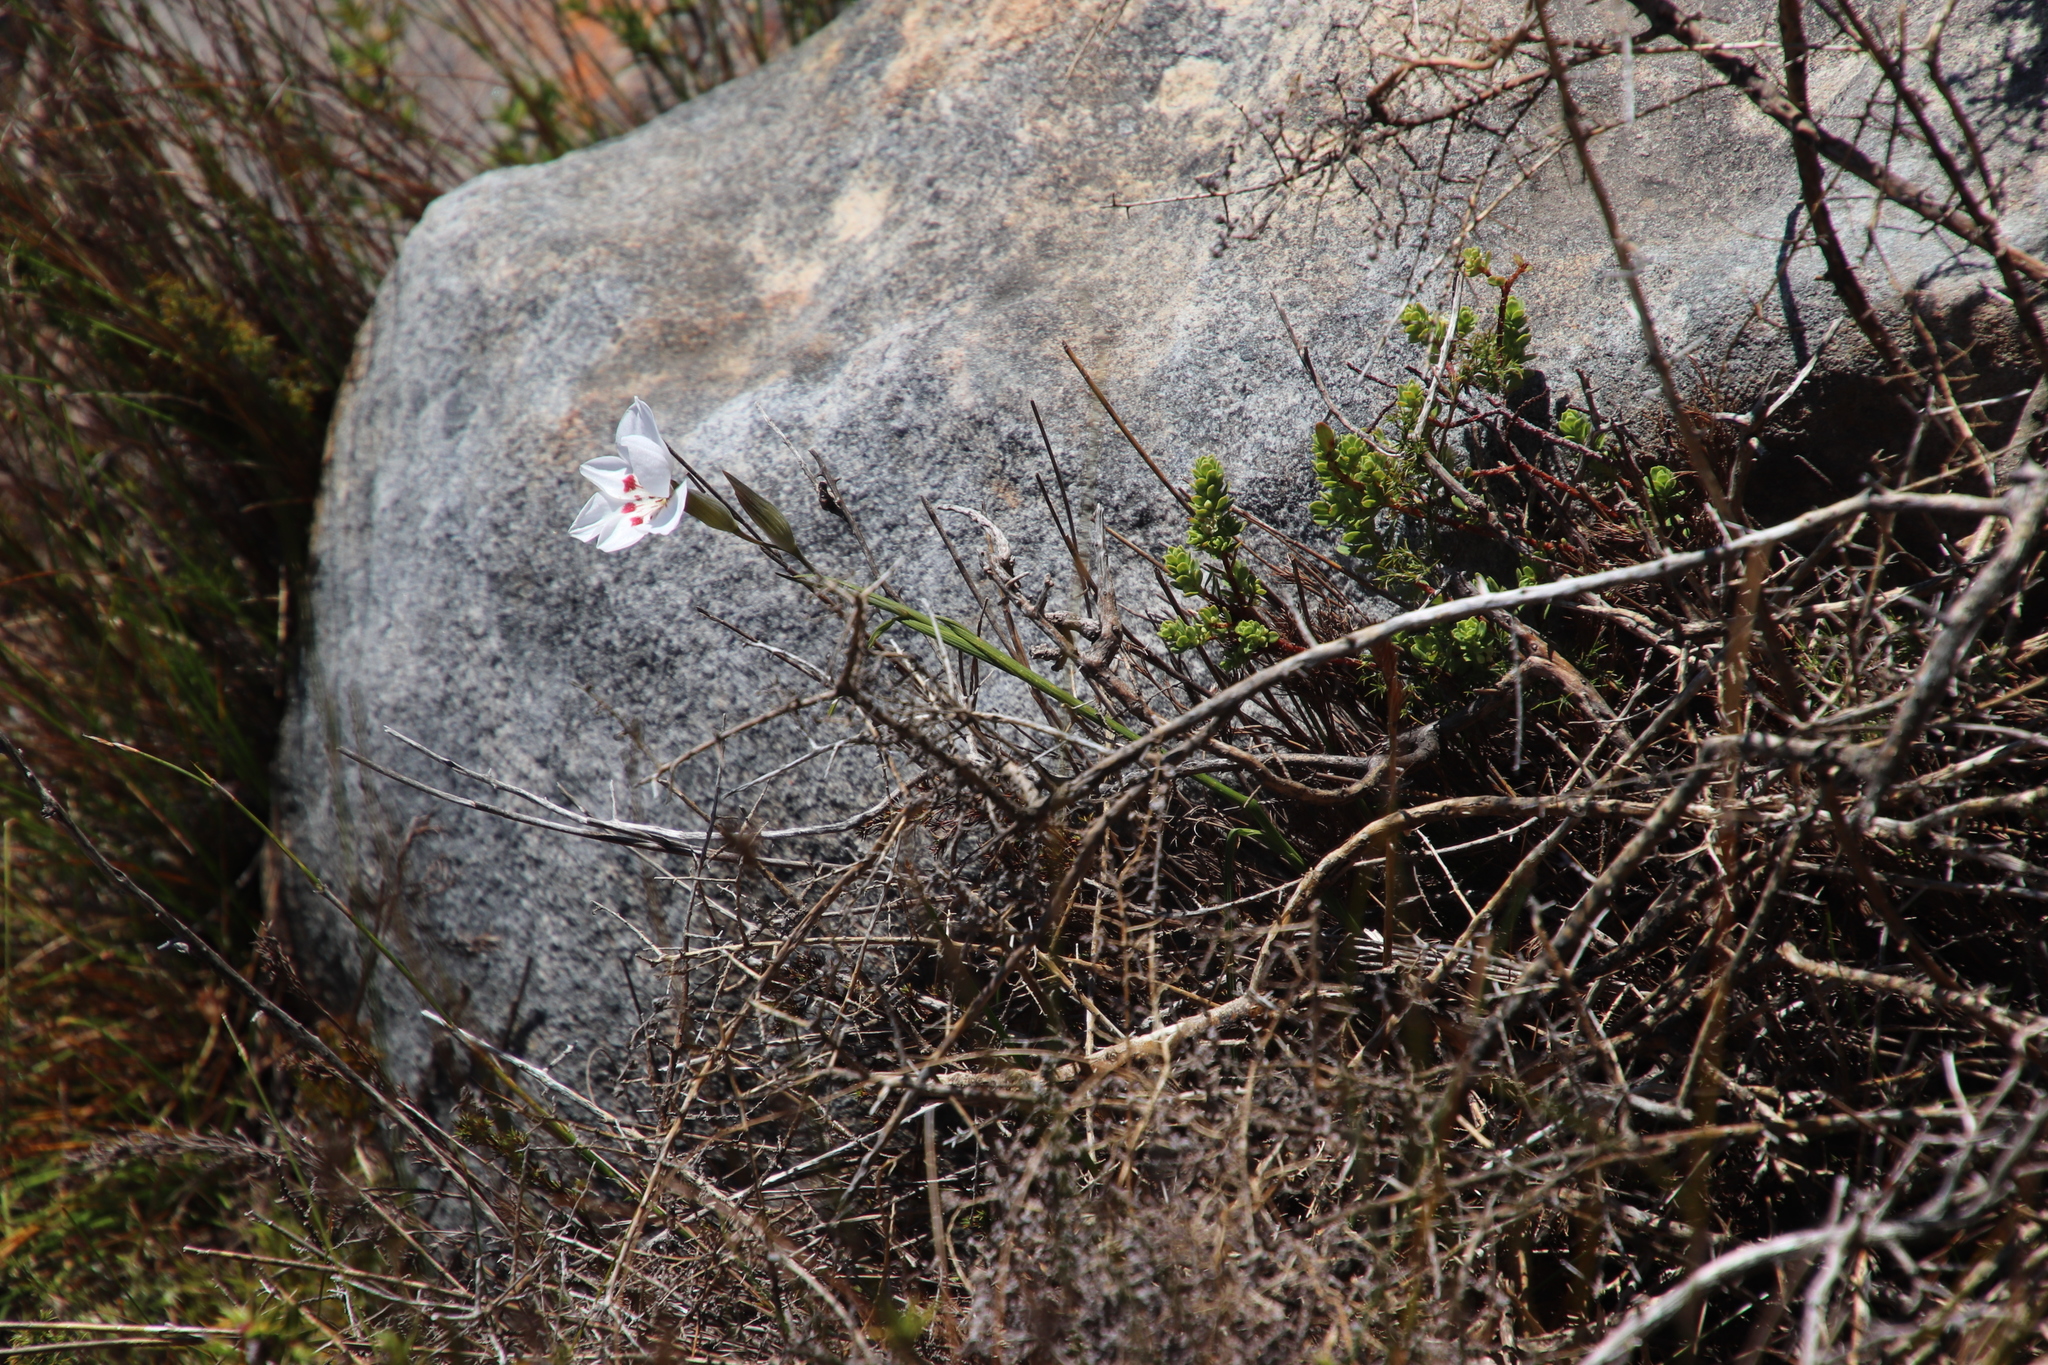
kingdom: Plantae
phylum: Tracheophyta
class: Liliopsida
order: Asparagales
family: Iridaceae
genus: Gladiolus
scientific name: Gladiolus debilis
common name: Painted-lady
